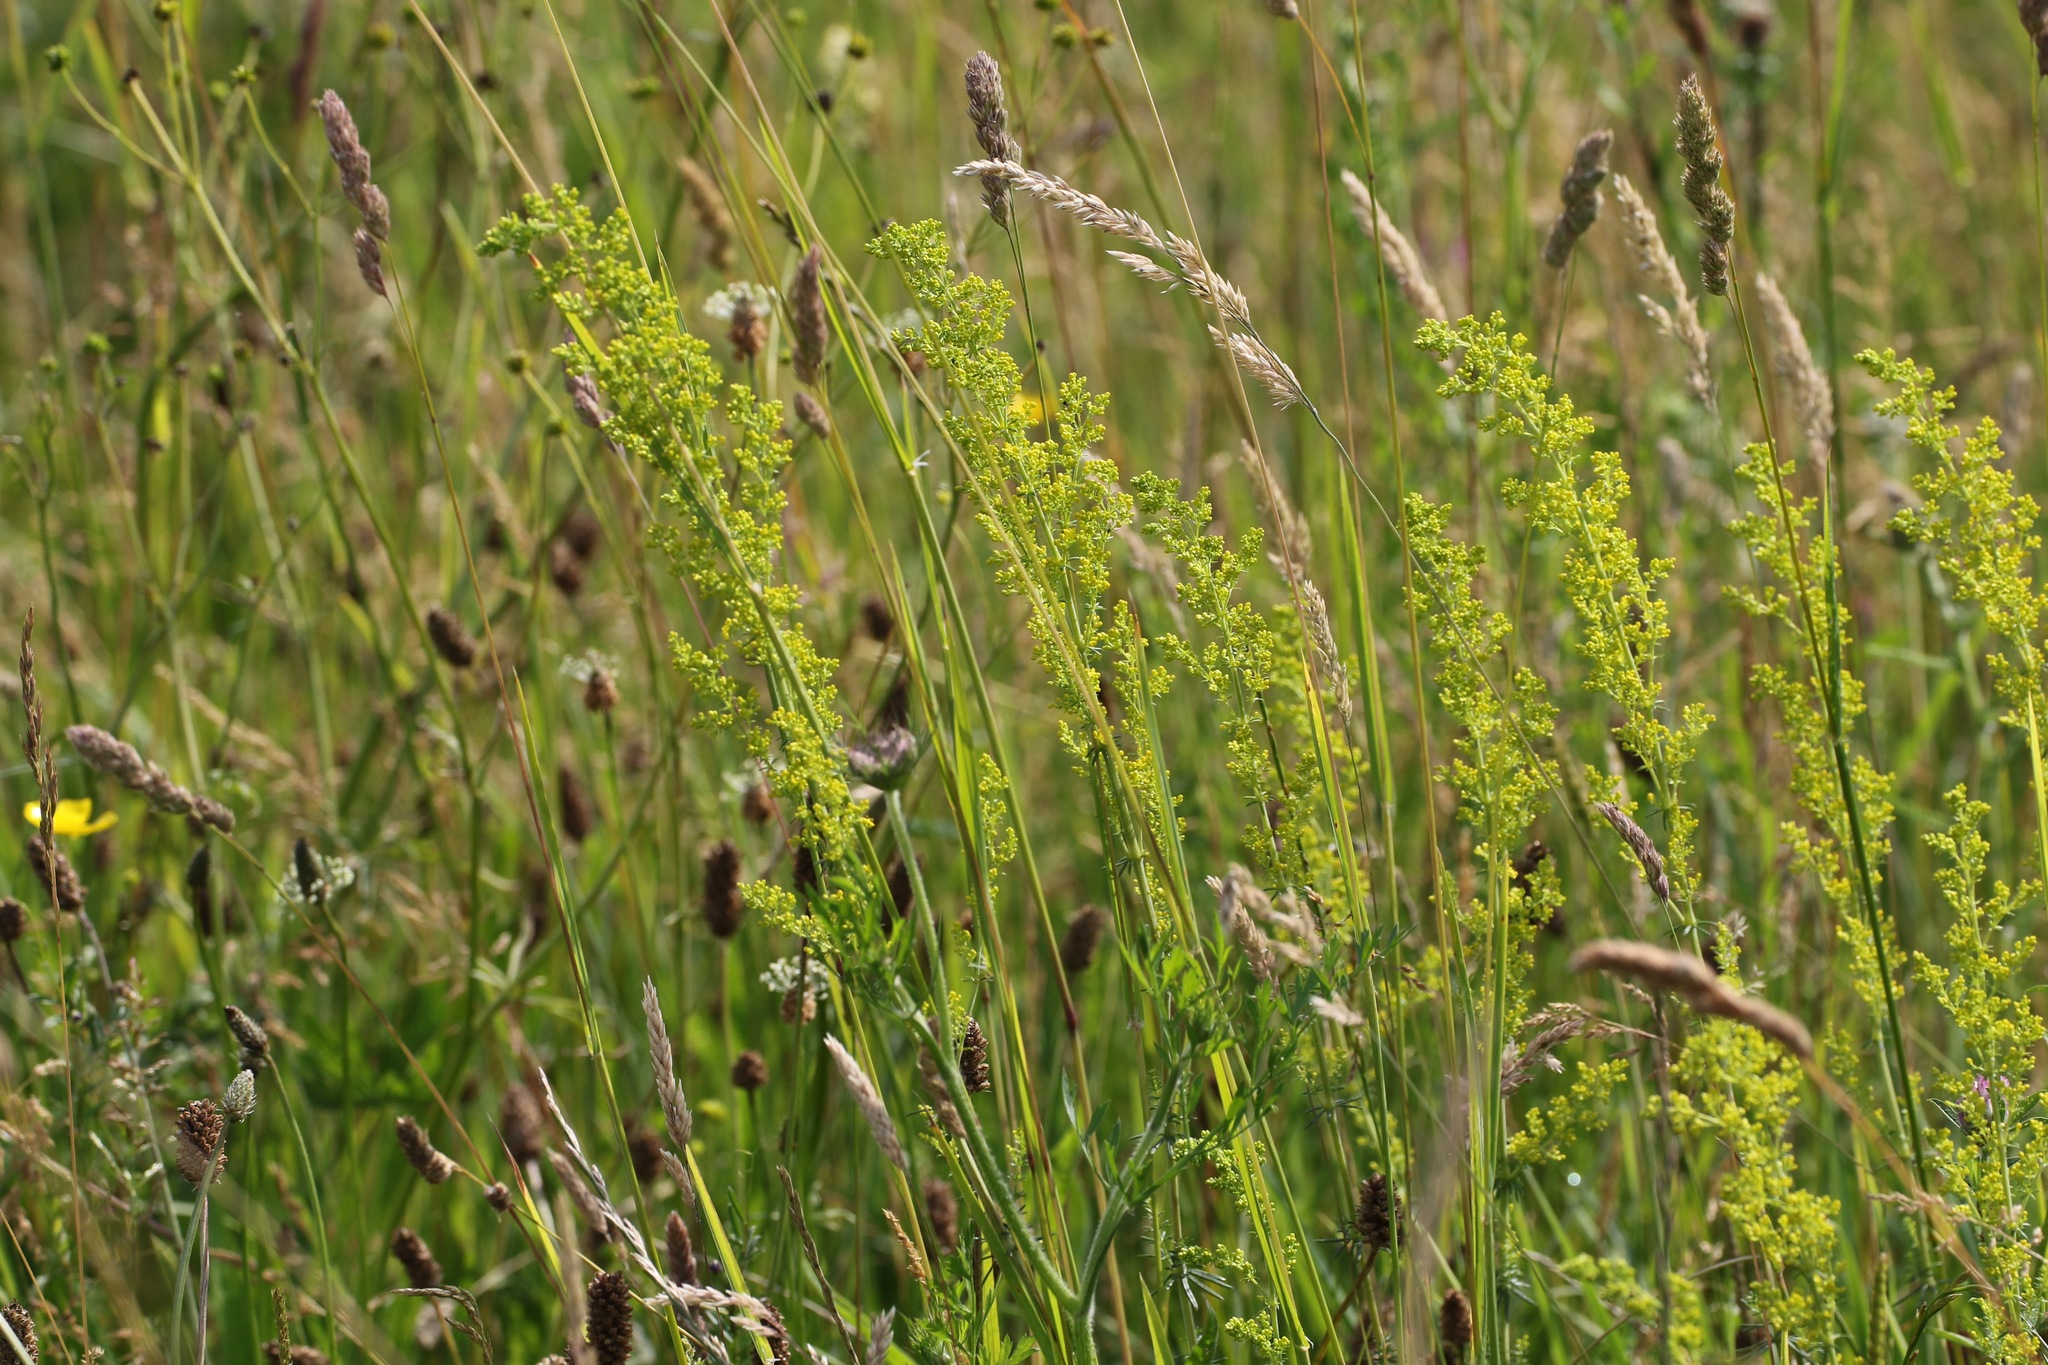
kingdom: Plantae
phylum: Tracheophyta
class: Magnoliopsida
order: Gentianales
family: Rubiaceae
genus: Galium
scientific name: Galium verum
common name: Lady's bedstraw
